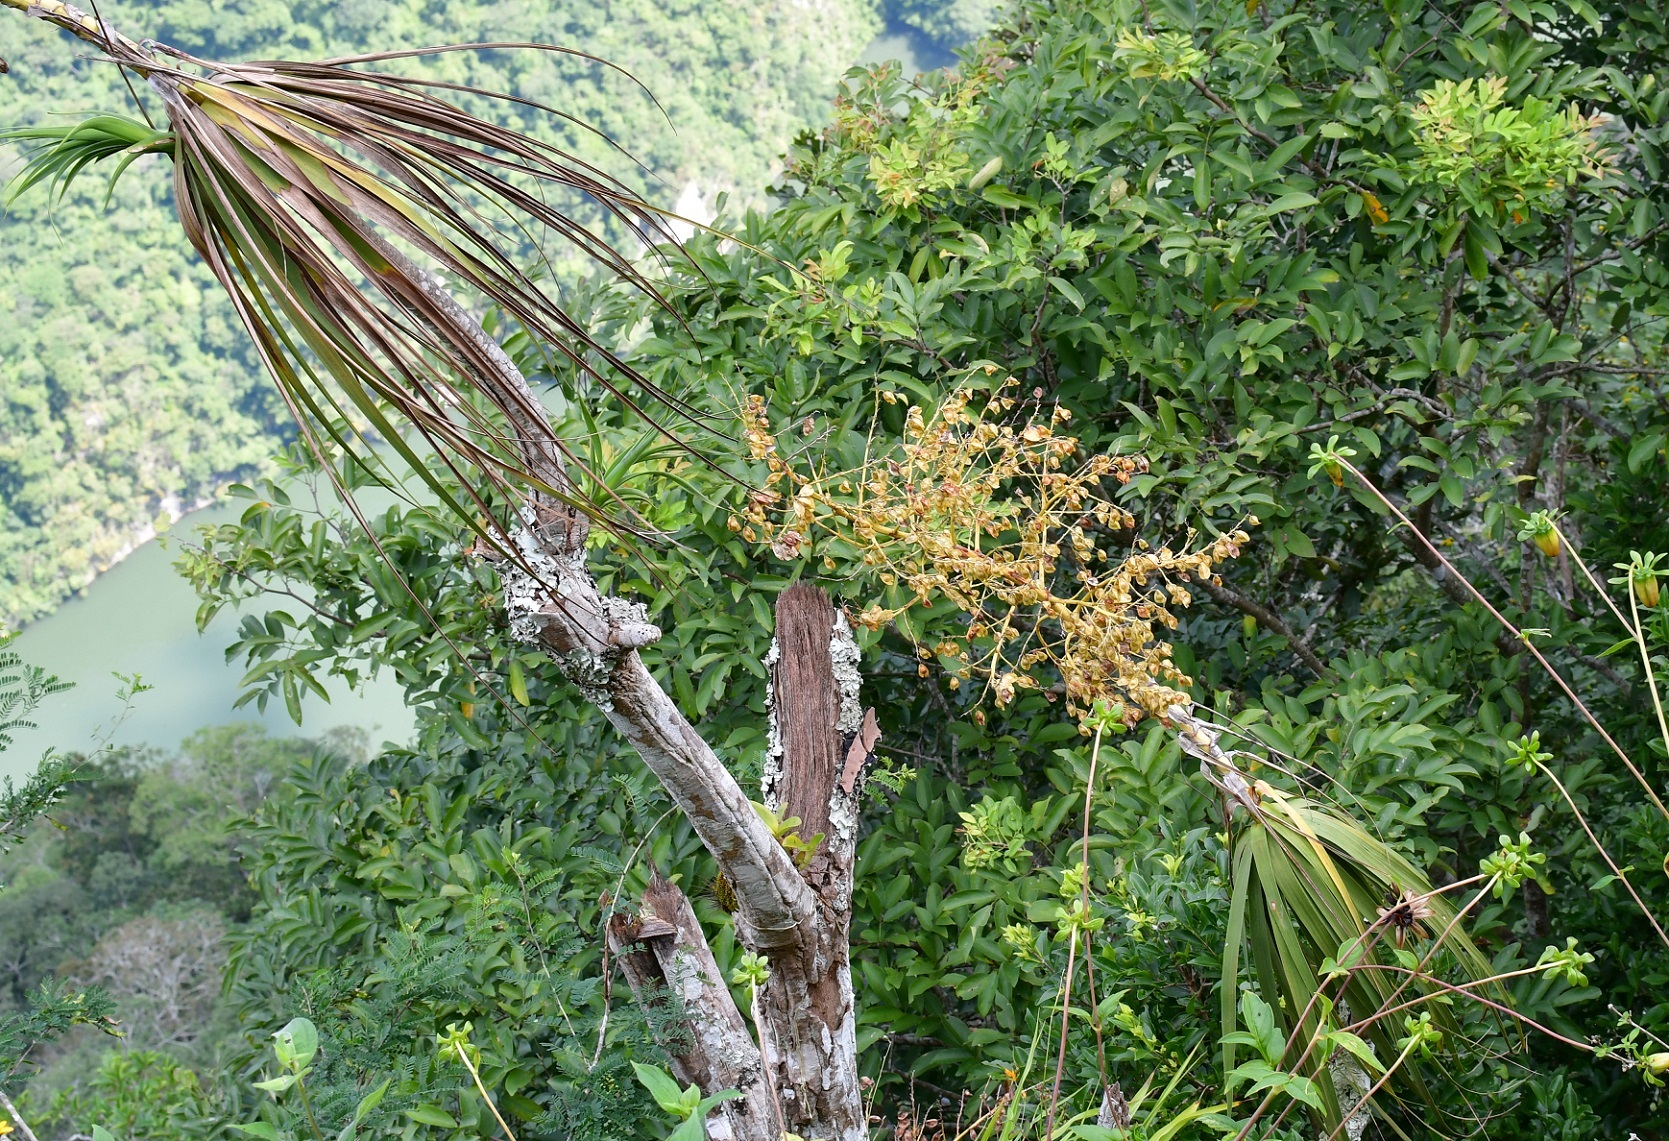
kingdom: Plantae
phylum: Tracheophyta
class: Liliopsida
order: Asparagales
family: Asparagaceae
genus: Beaucarnea
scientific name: Beaucarnea goldmanii
